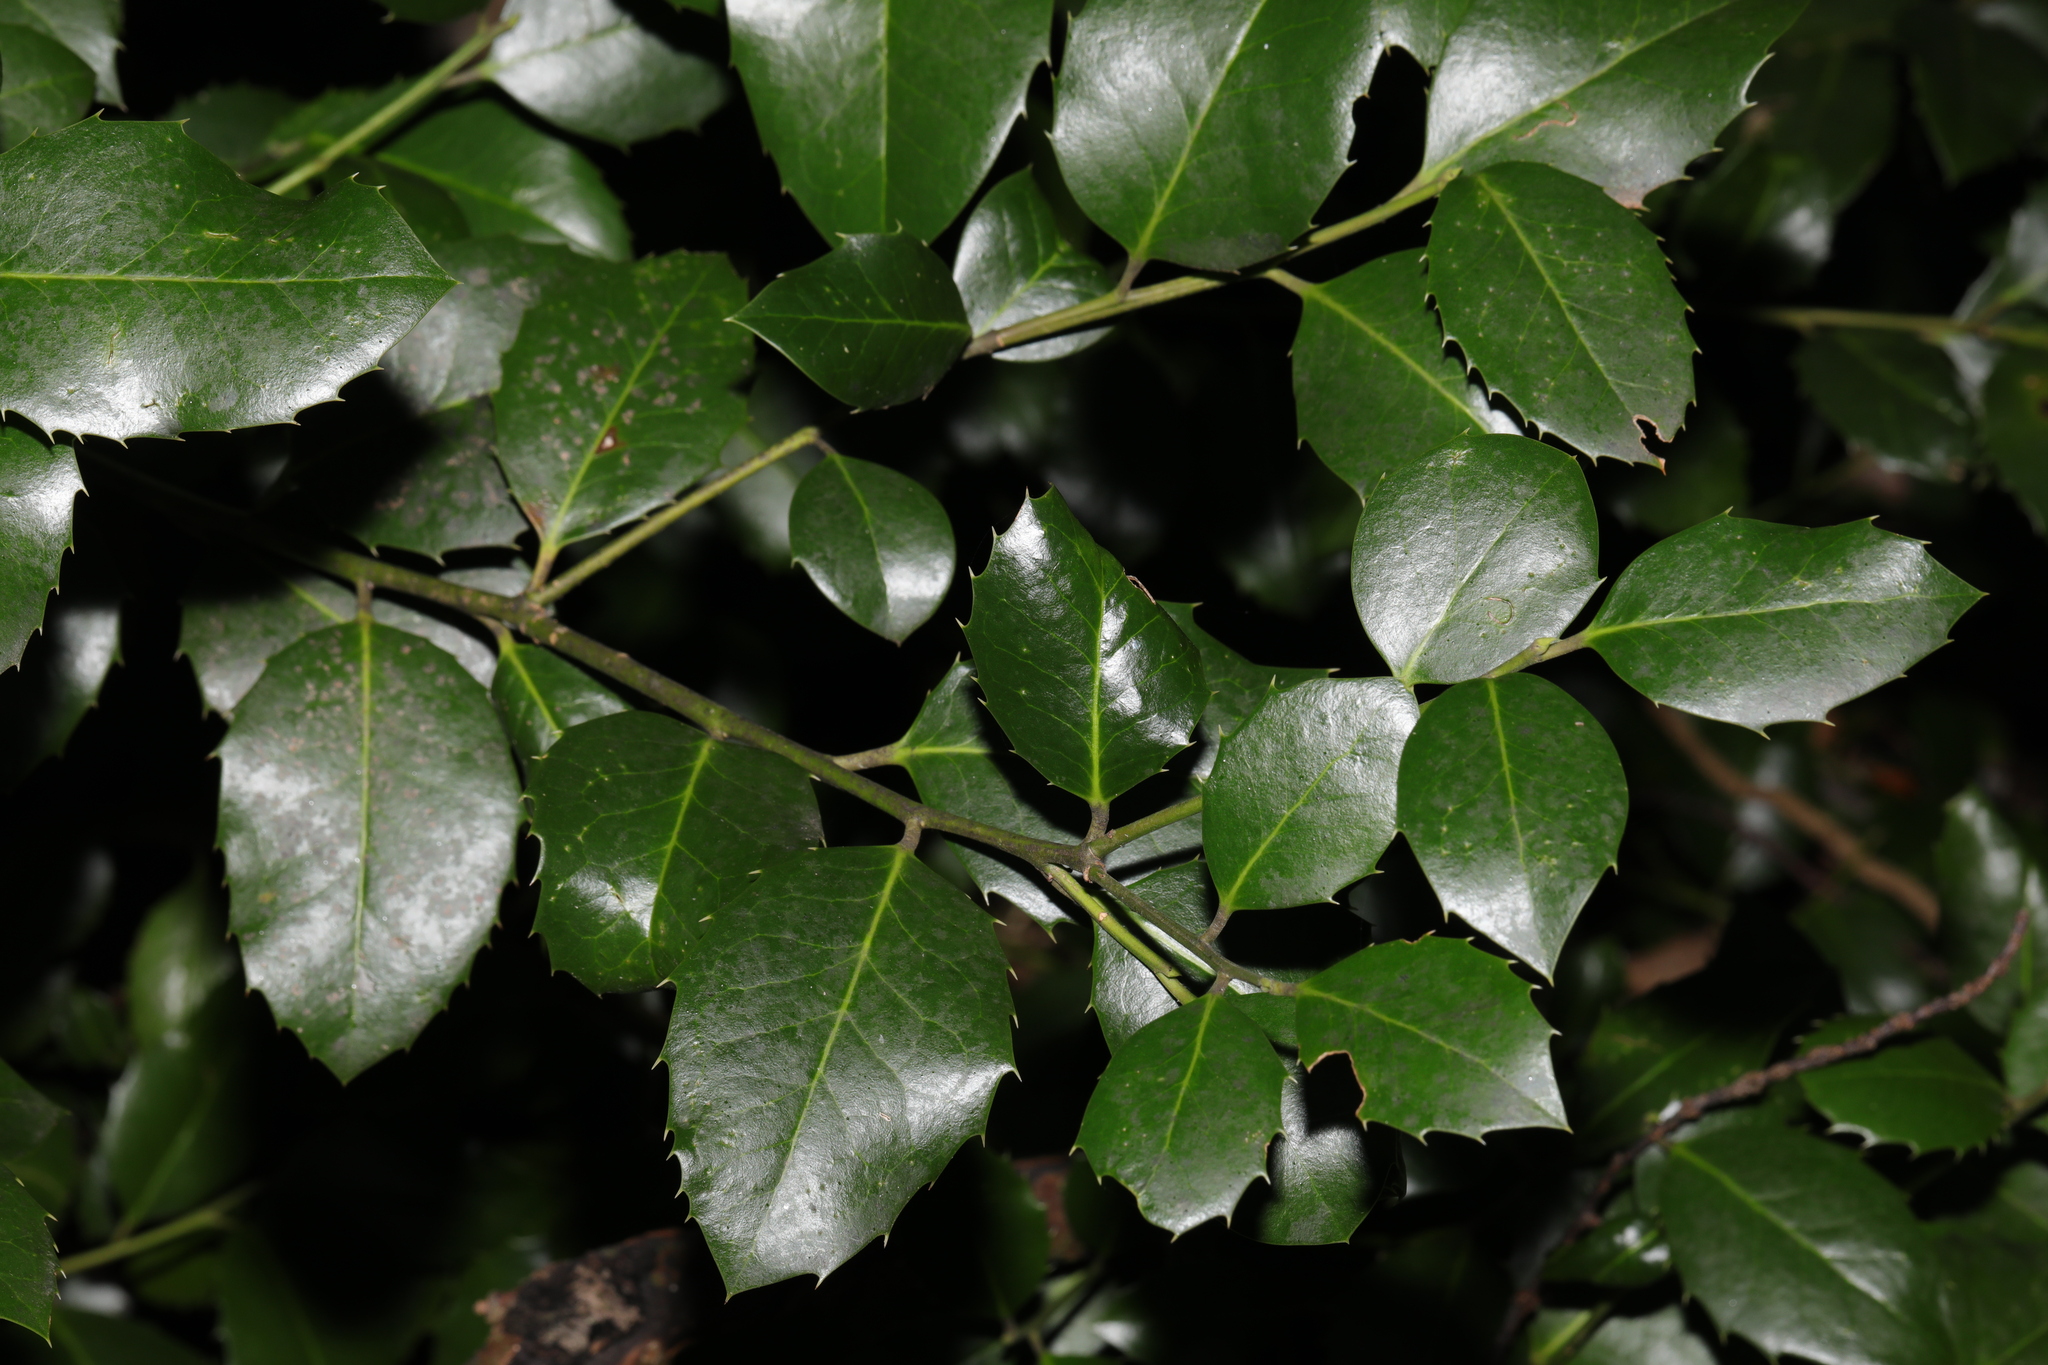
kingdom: Plantae
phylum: Tracheophyta
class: Magnoliopsida
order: Aquifoliales
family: Aquifoliaceae
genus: Ilex
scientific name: Ilex aquifolium
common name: English holly
